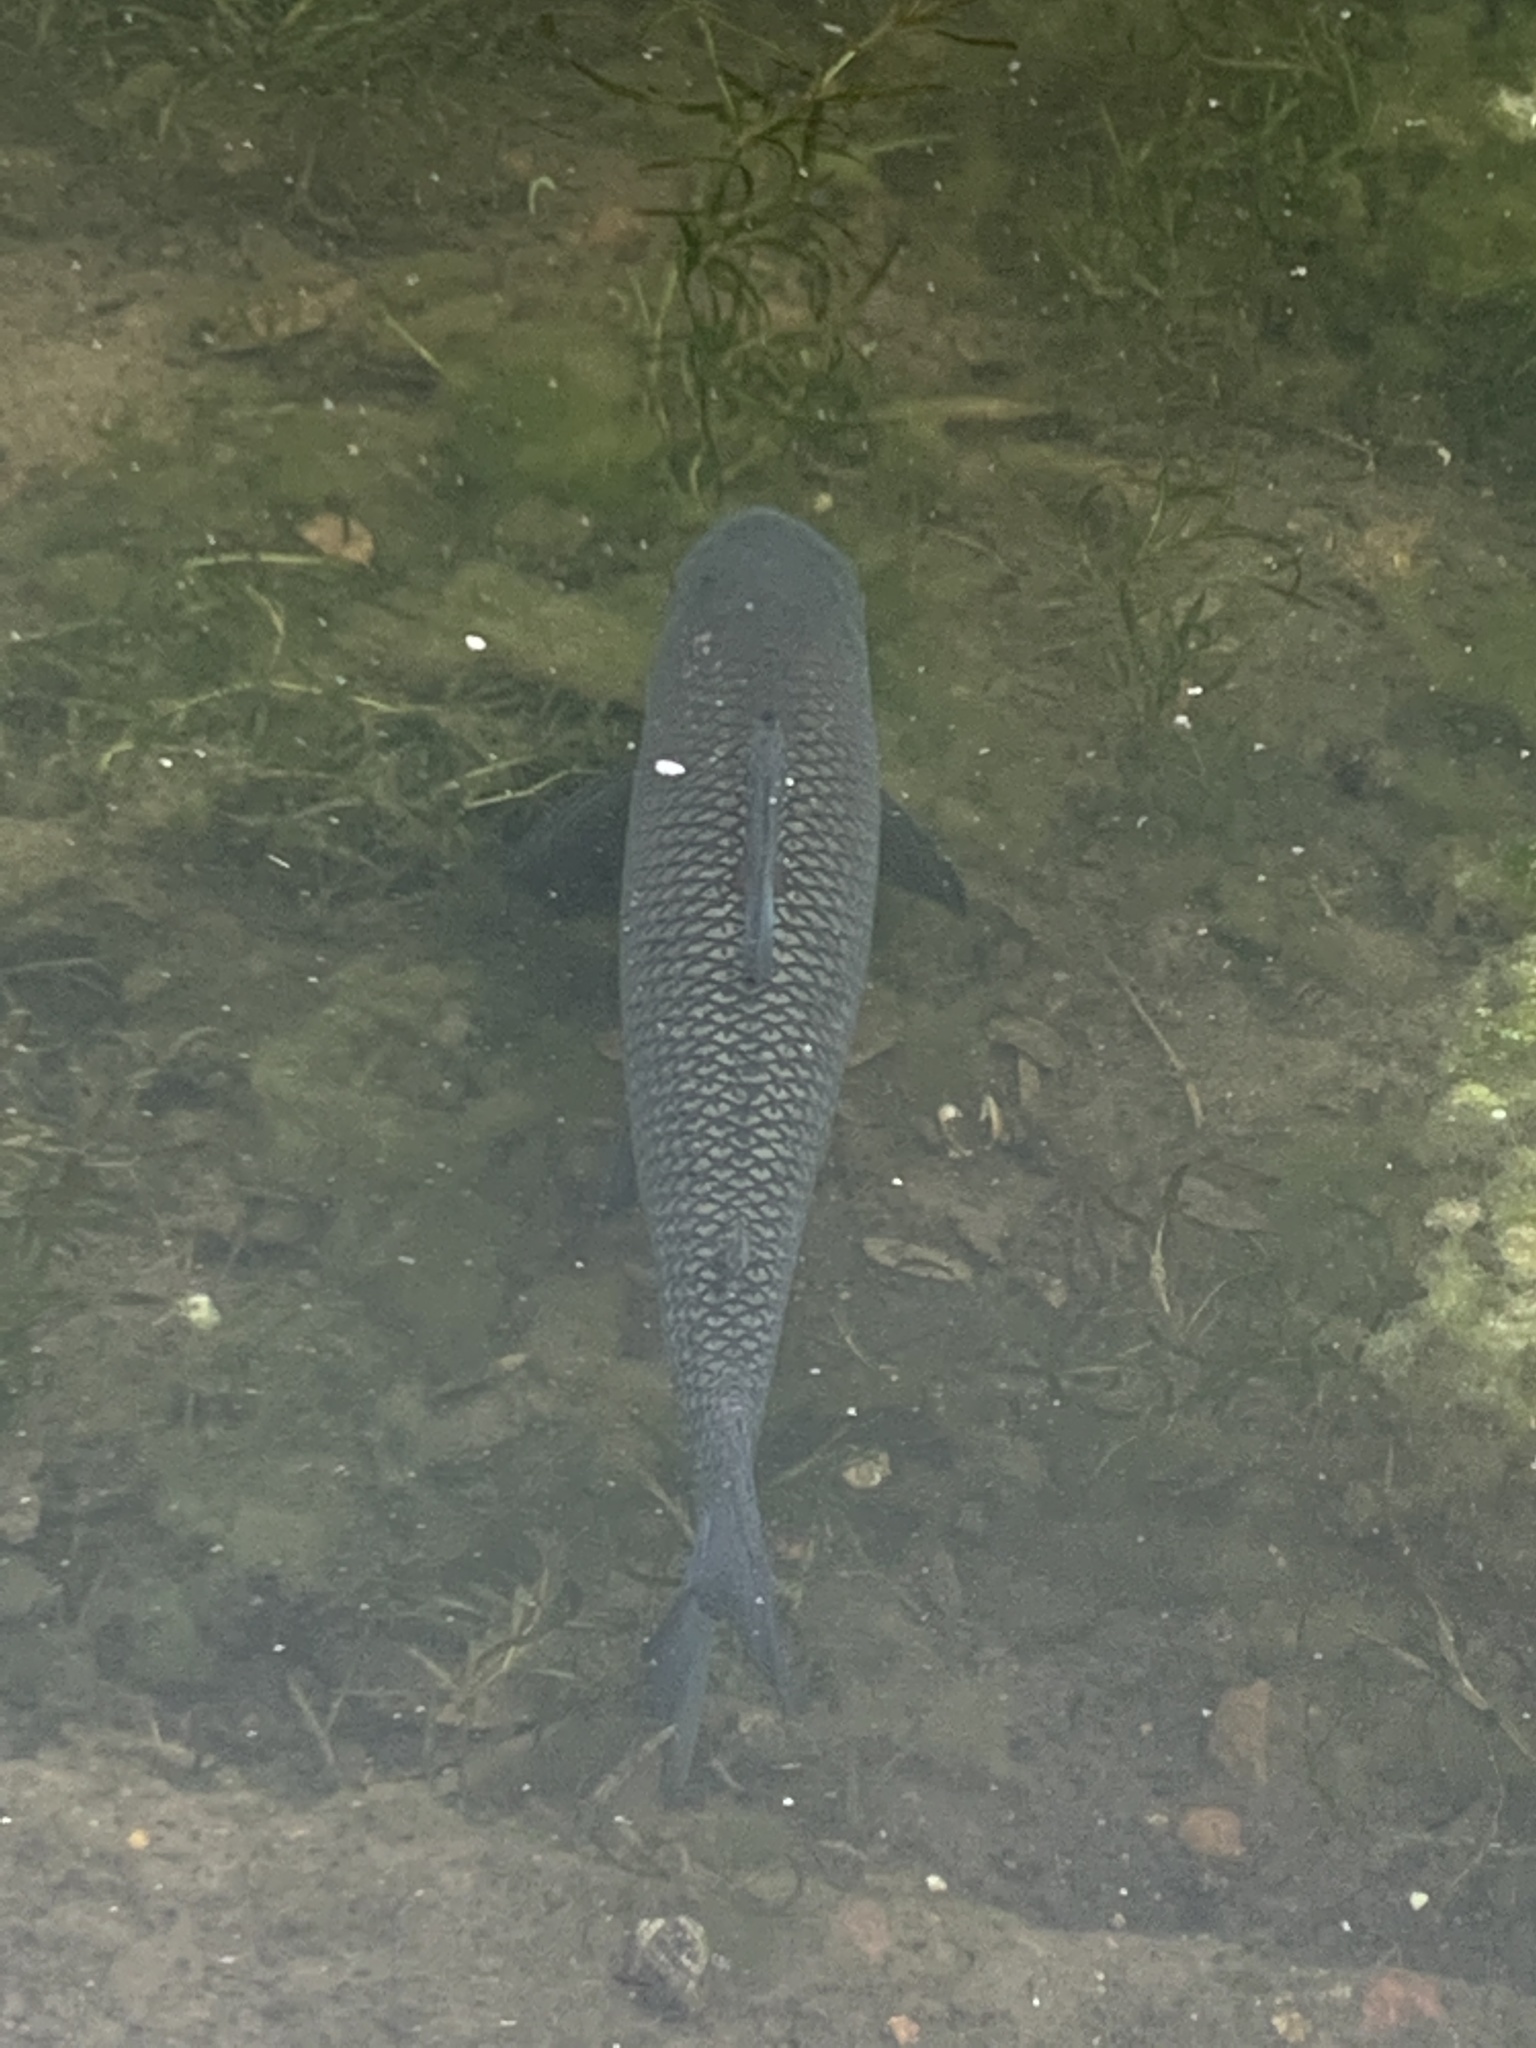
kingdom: Animalia
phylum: Chordata
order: Characiformes
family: Prochilodontidae
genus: Prochilodus
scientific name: Prochilodus lineatus
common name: Curimbata
